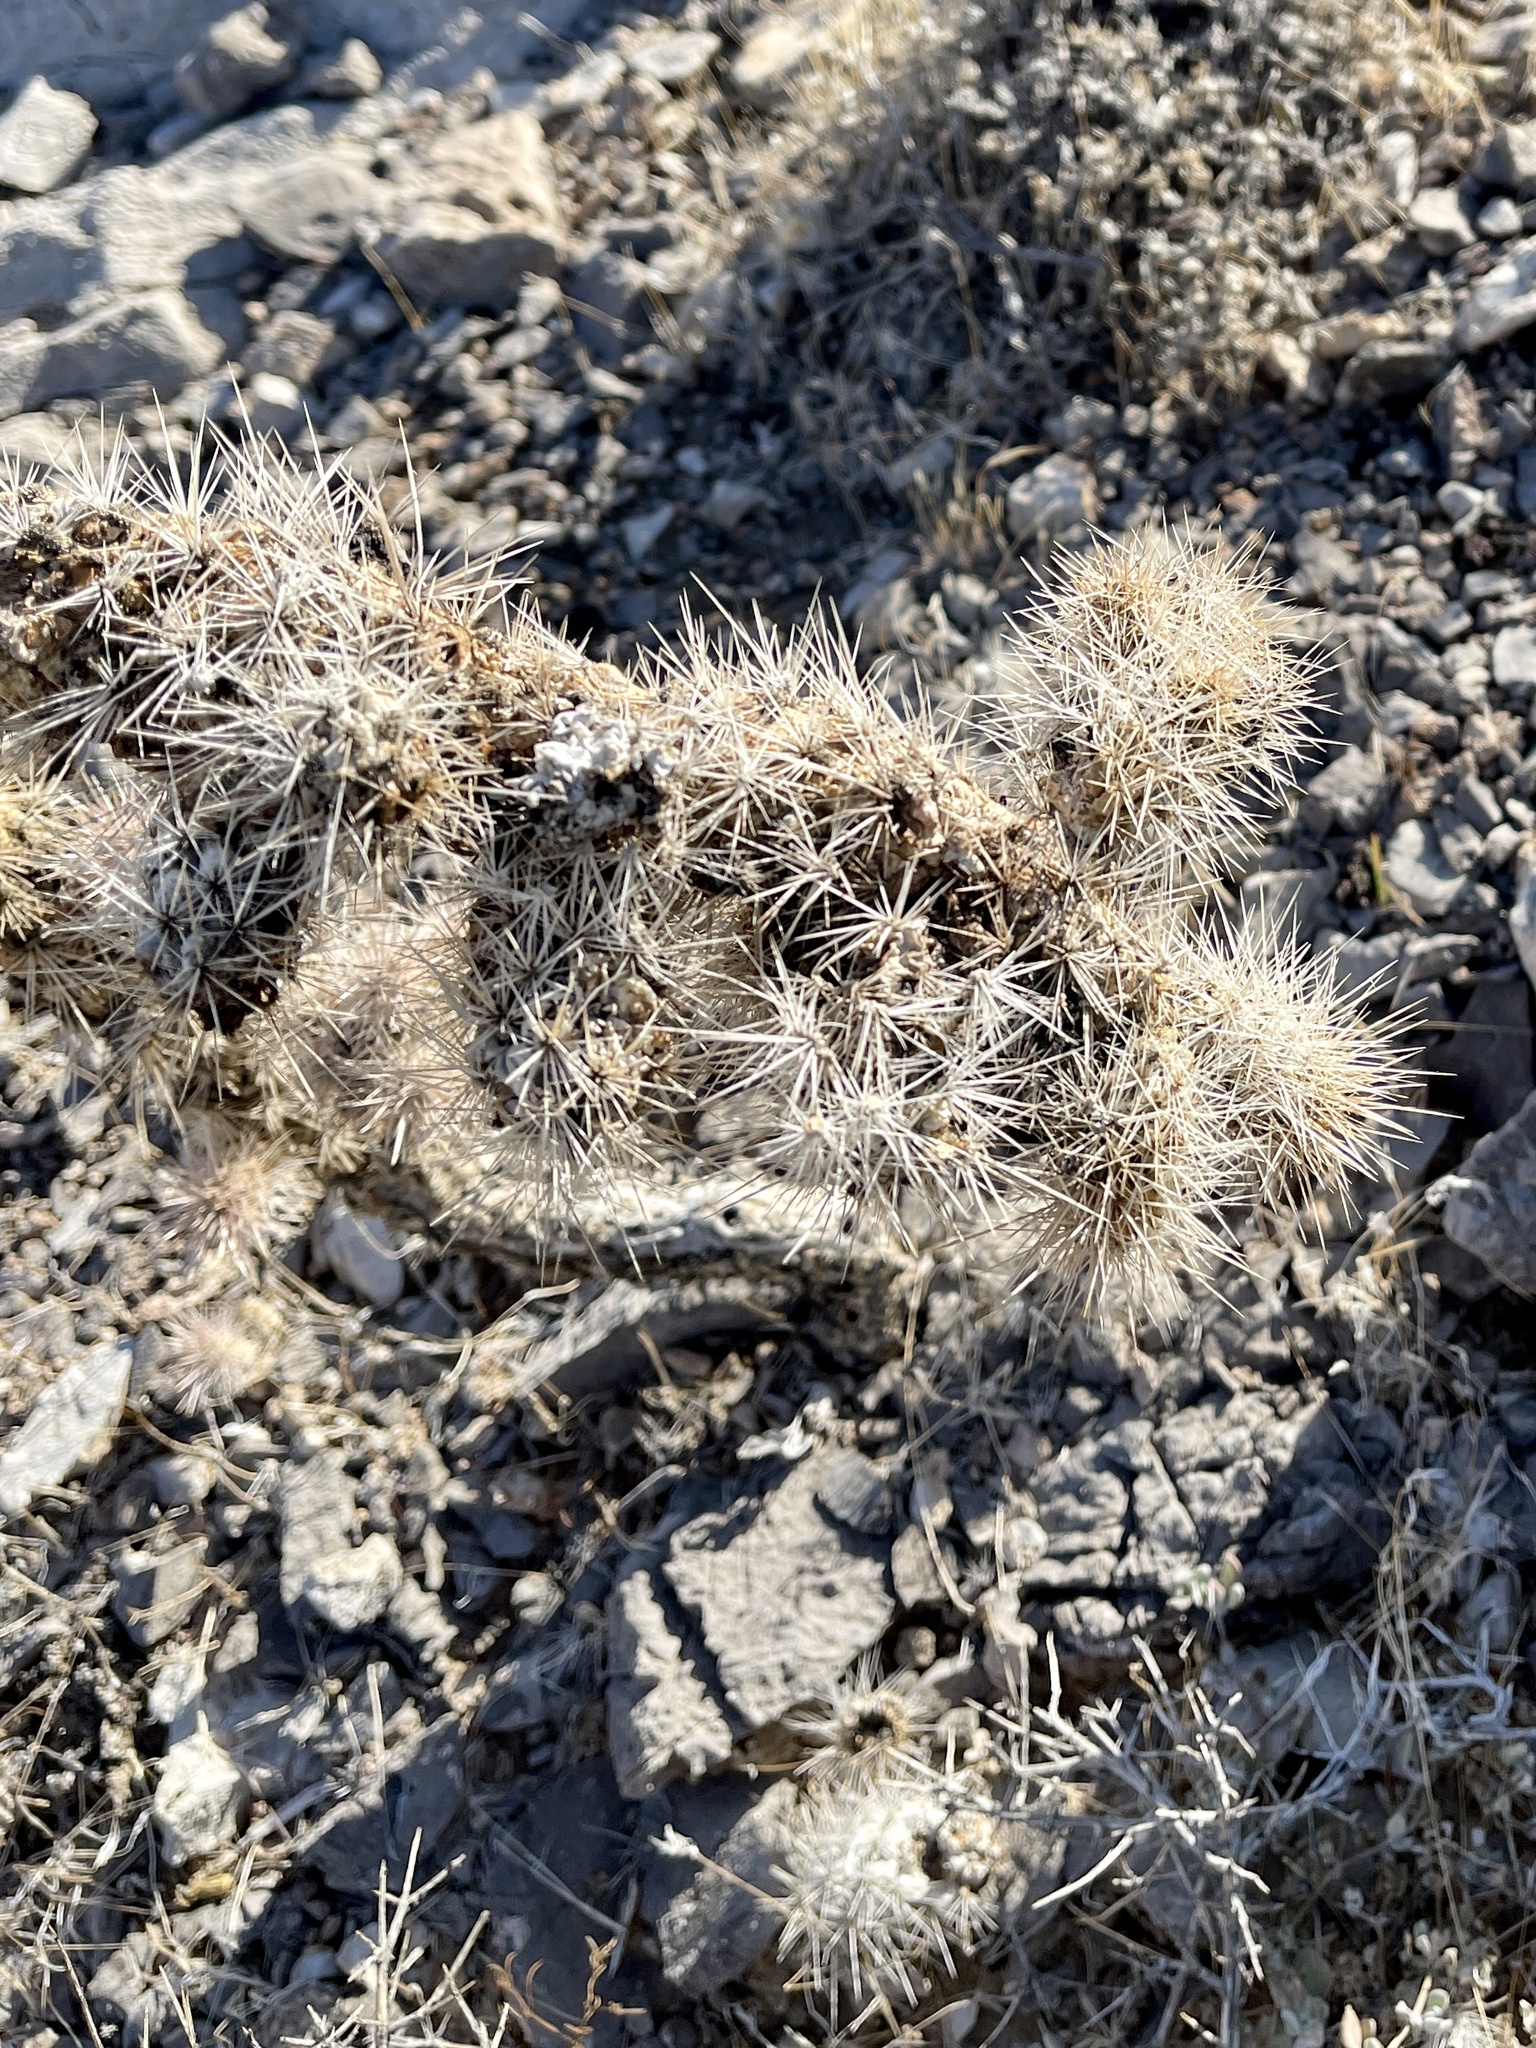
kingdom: Plantae
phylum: Tracheophyta
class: Magnoliopsida
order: Caryophyllales
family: Cactaceae
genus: Cylindropuntia
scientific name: Cylindropuntia echinocarpa
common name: Ground cholla
